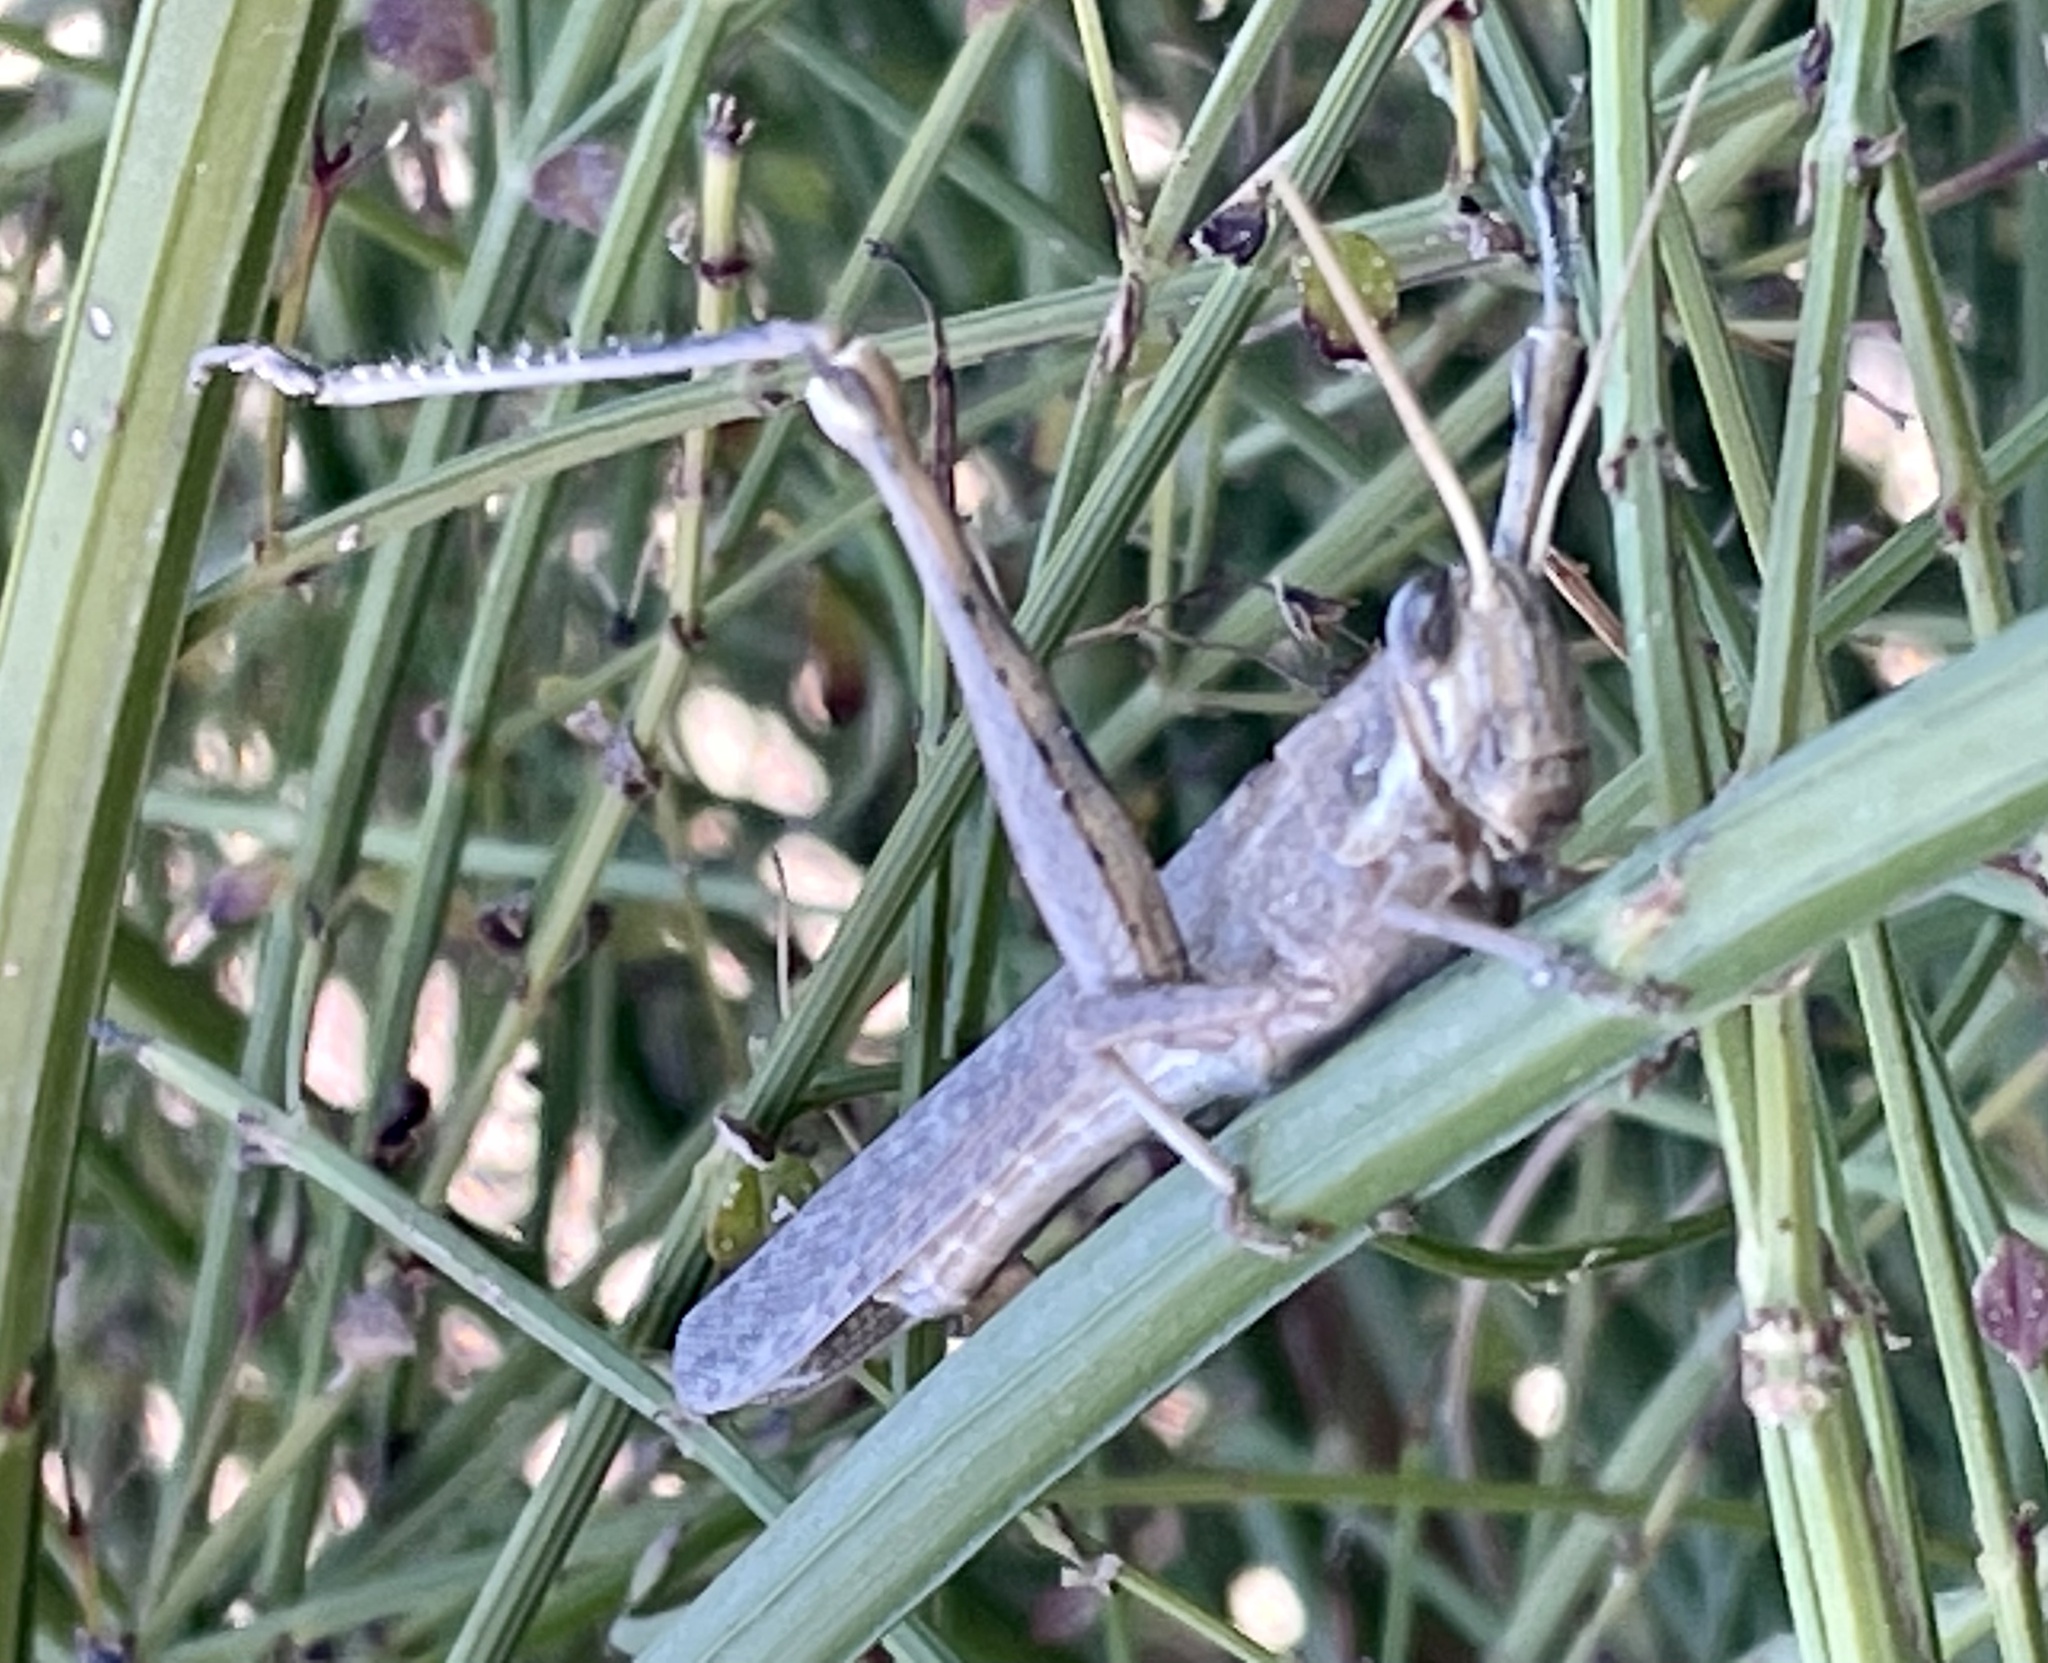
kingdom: Animalia
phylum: Arthropoda
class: Insecta
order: Orthoptera
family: Acrididae
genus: Schistocerca
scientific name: Schistocerca nitens
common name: Vagrant grasshopper
